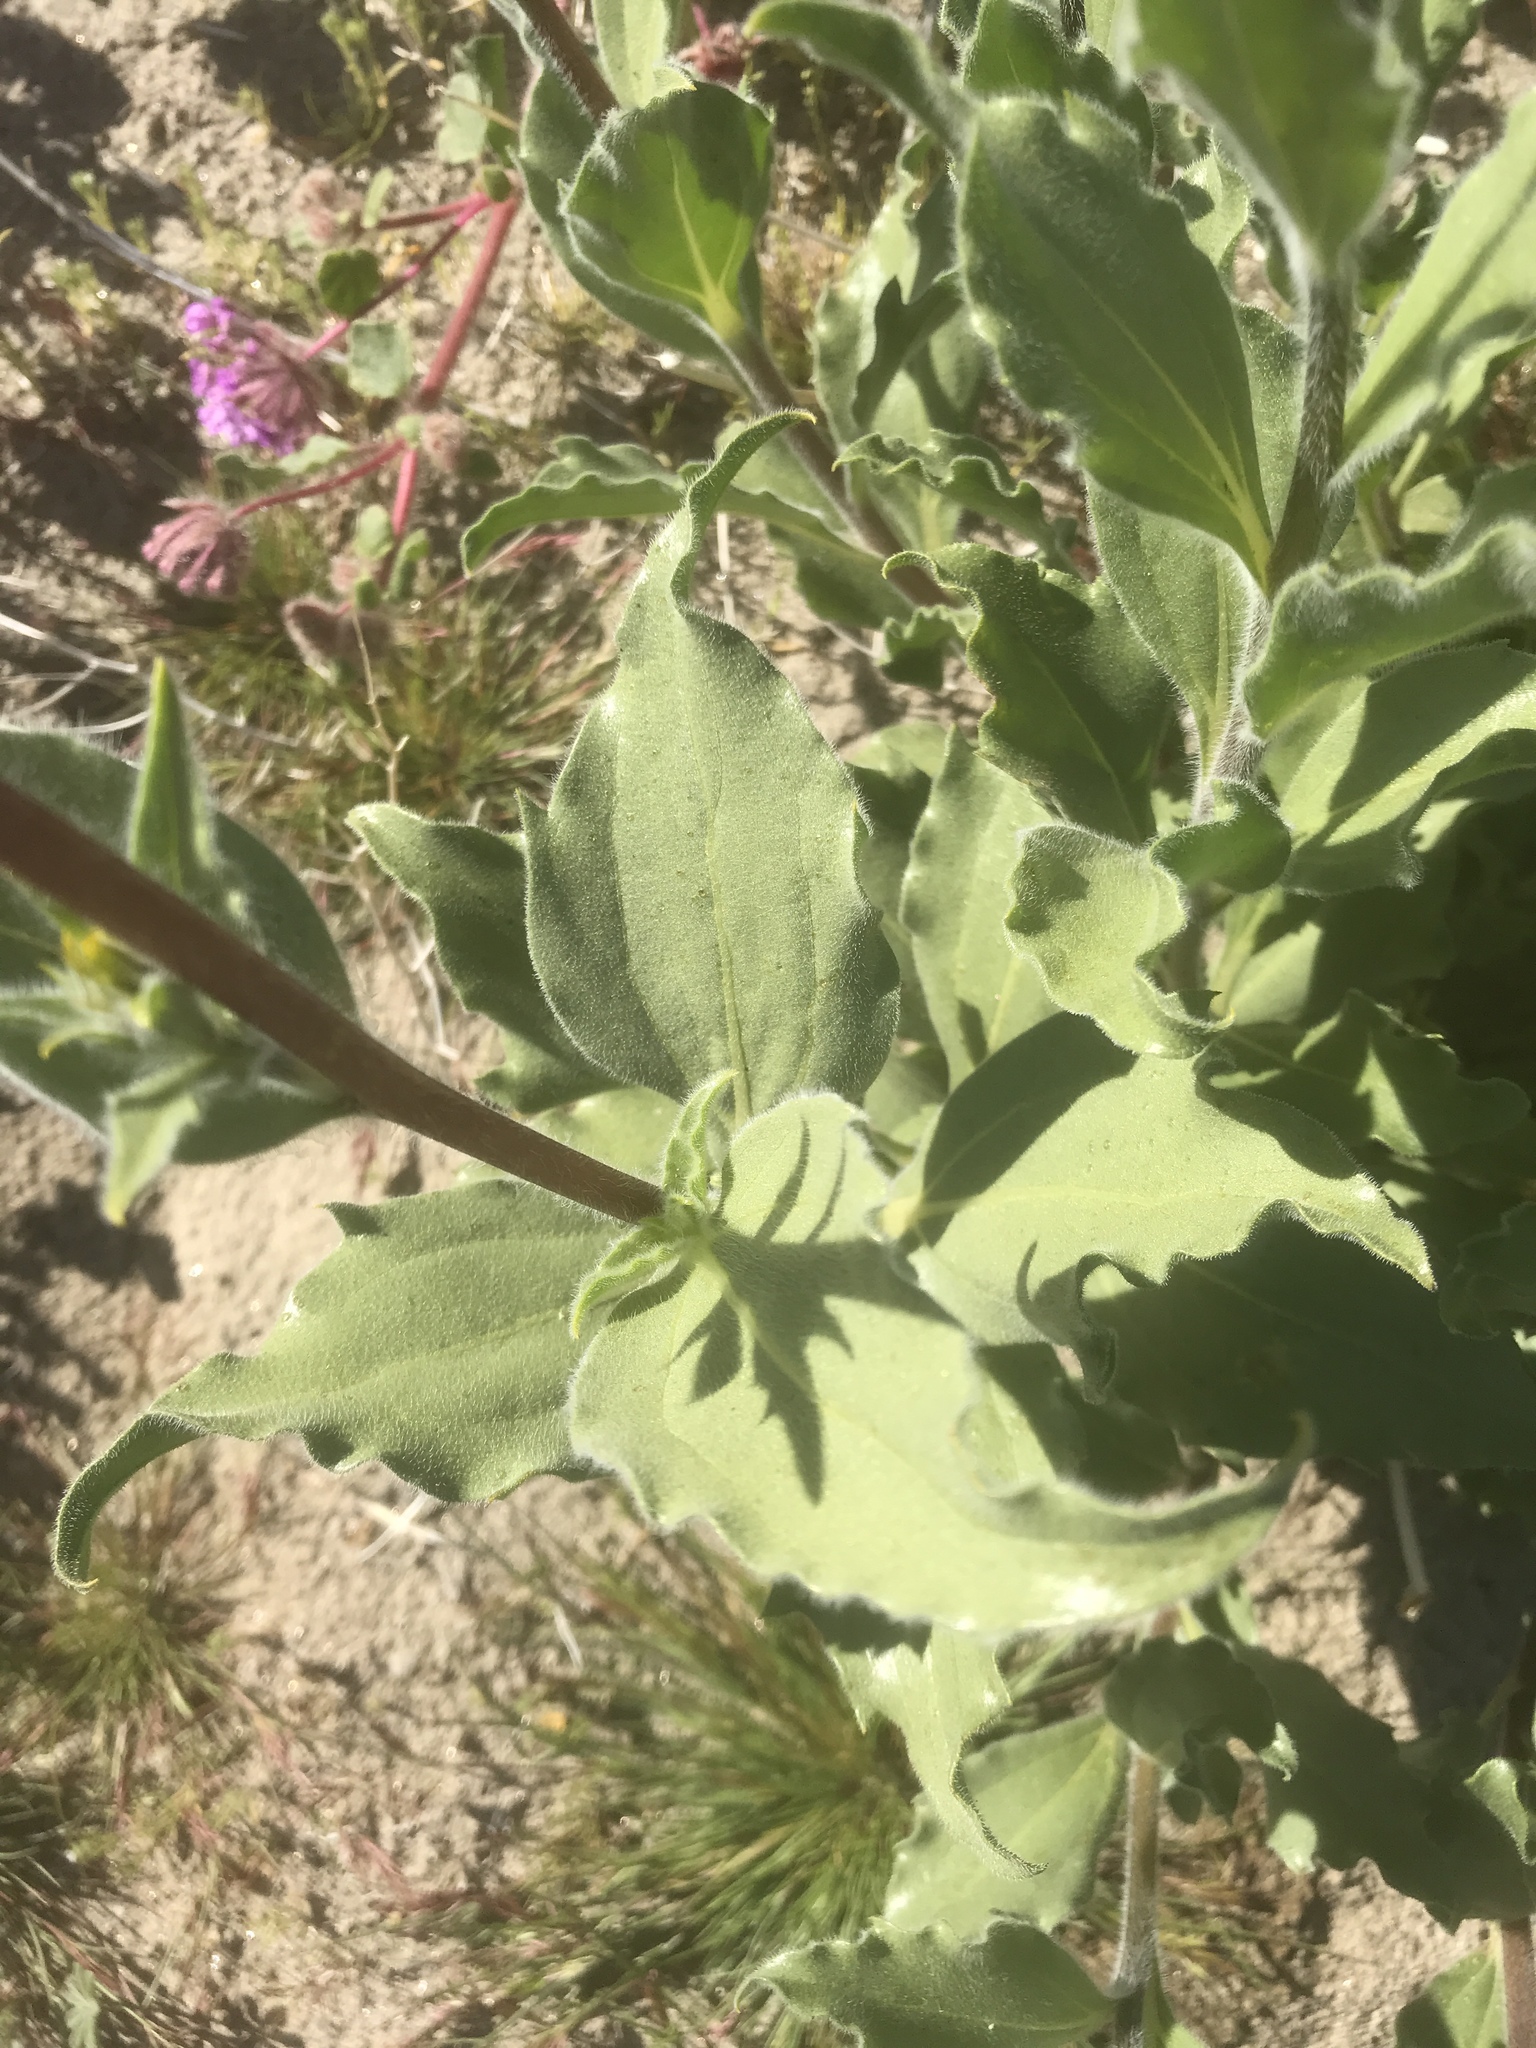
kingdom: Plantae
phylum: Tracheophyta
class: Magnoliopsida
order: Asterales
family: Asteraceae
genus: Geraea
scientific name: Geraea canescens
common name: Desert-gold
